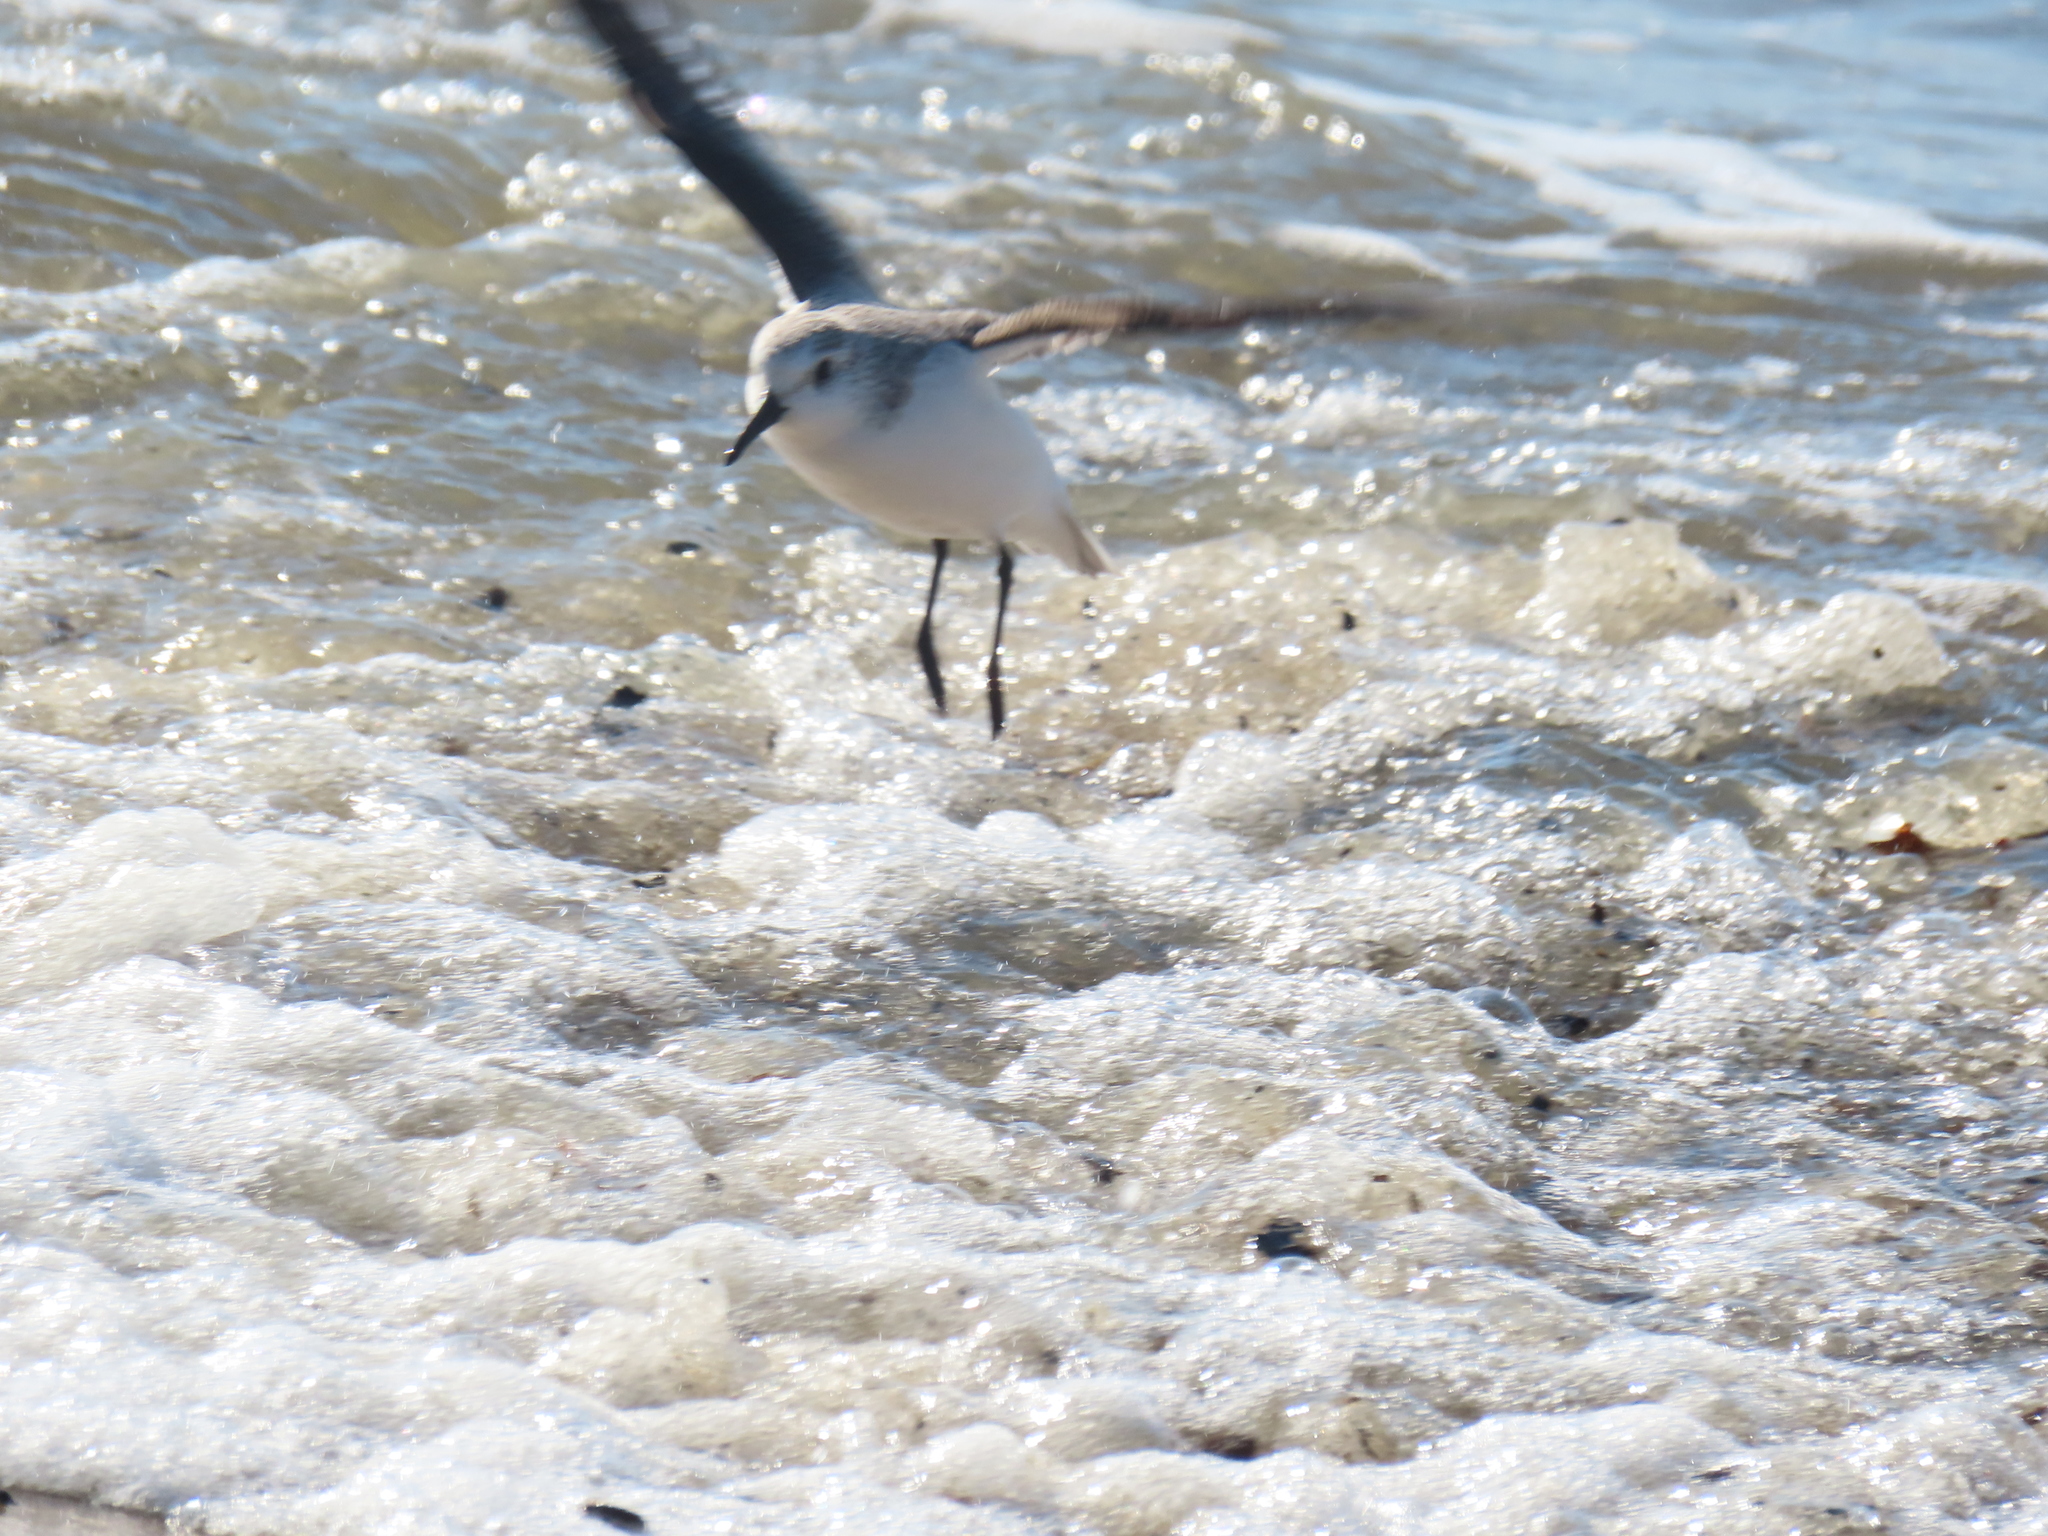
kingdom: Animalia
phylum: Chordata
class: Aves
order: Charadriiformes
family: Scolopacidae
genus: Calidris
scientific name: Calidris alba
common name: Sanderling
